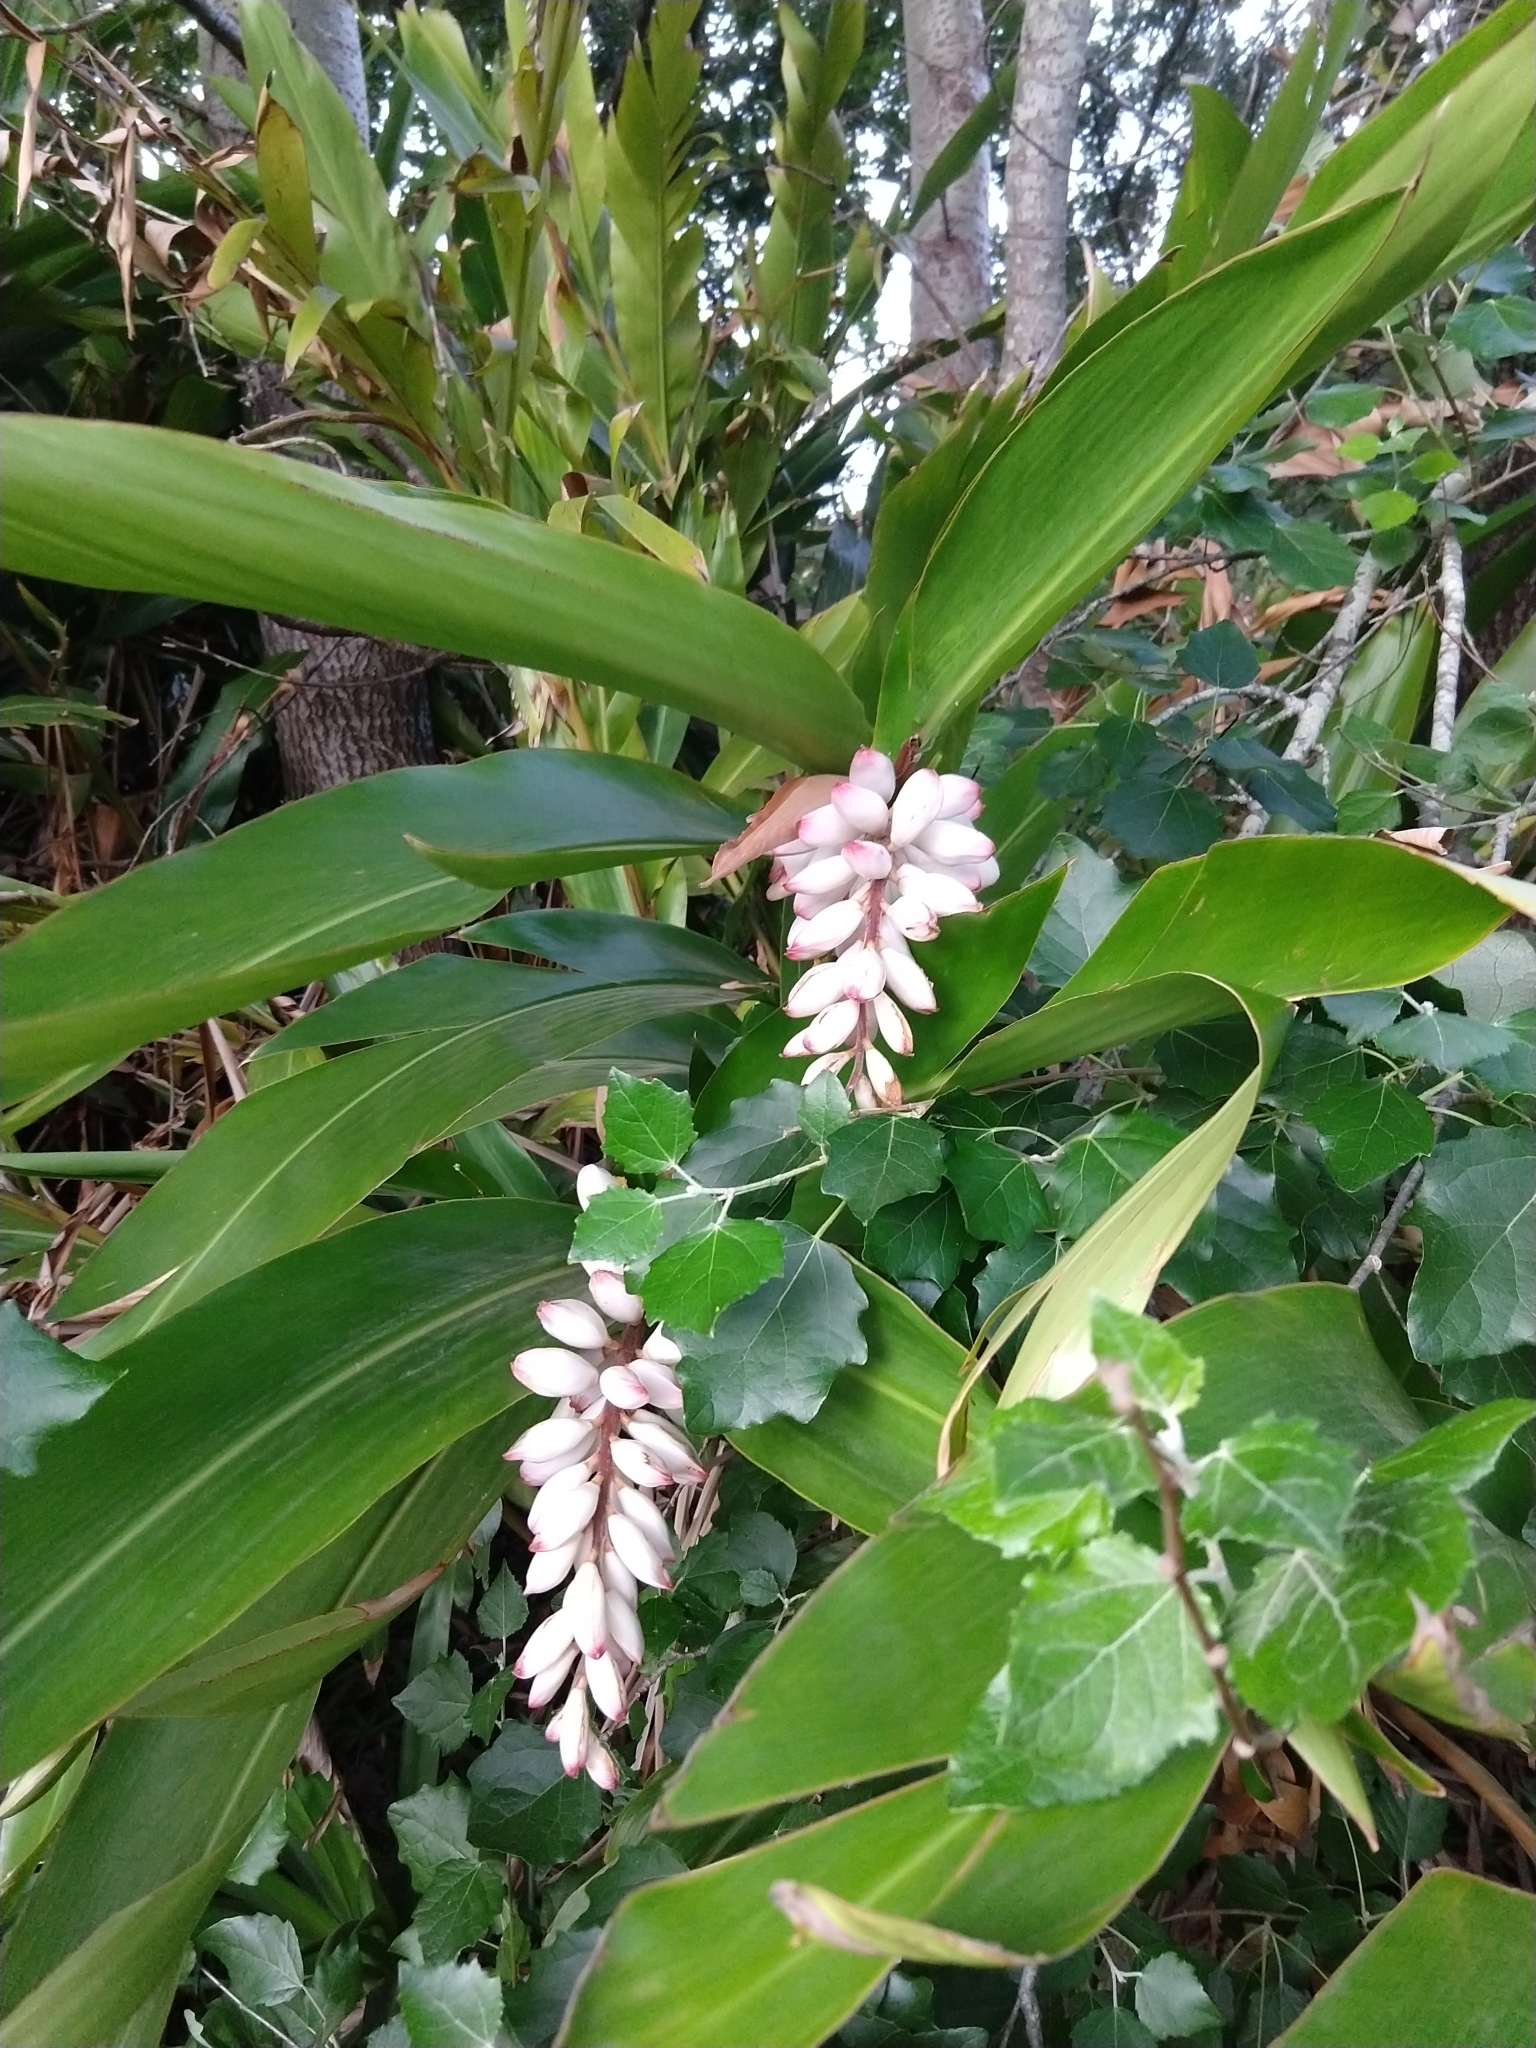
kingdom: Plantae
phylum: Tracheophyta
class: Liliopsida
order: Zingiberales
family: Zingiberaceae
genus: Alpinia
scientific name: Alpinia zerumbet
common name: Shellplant
